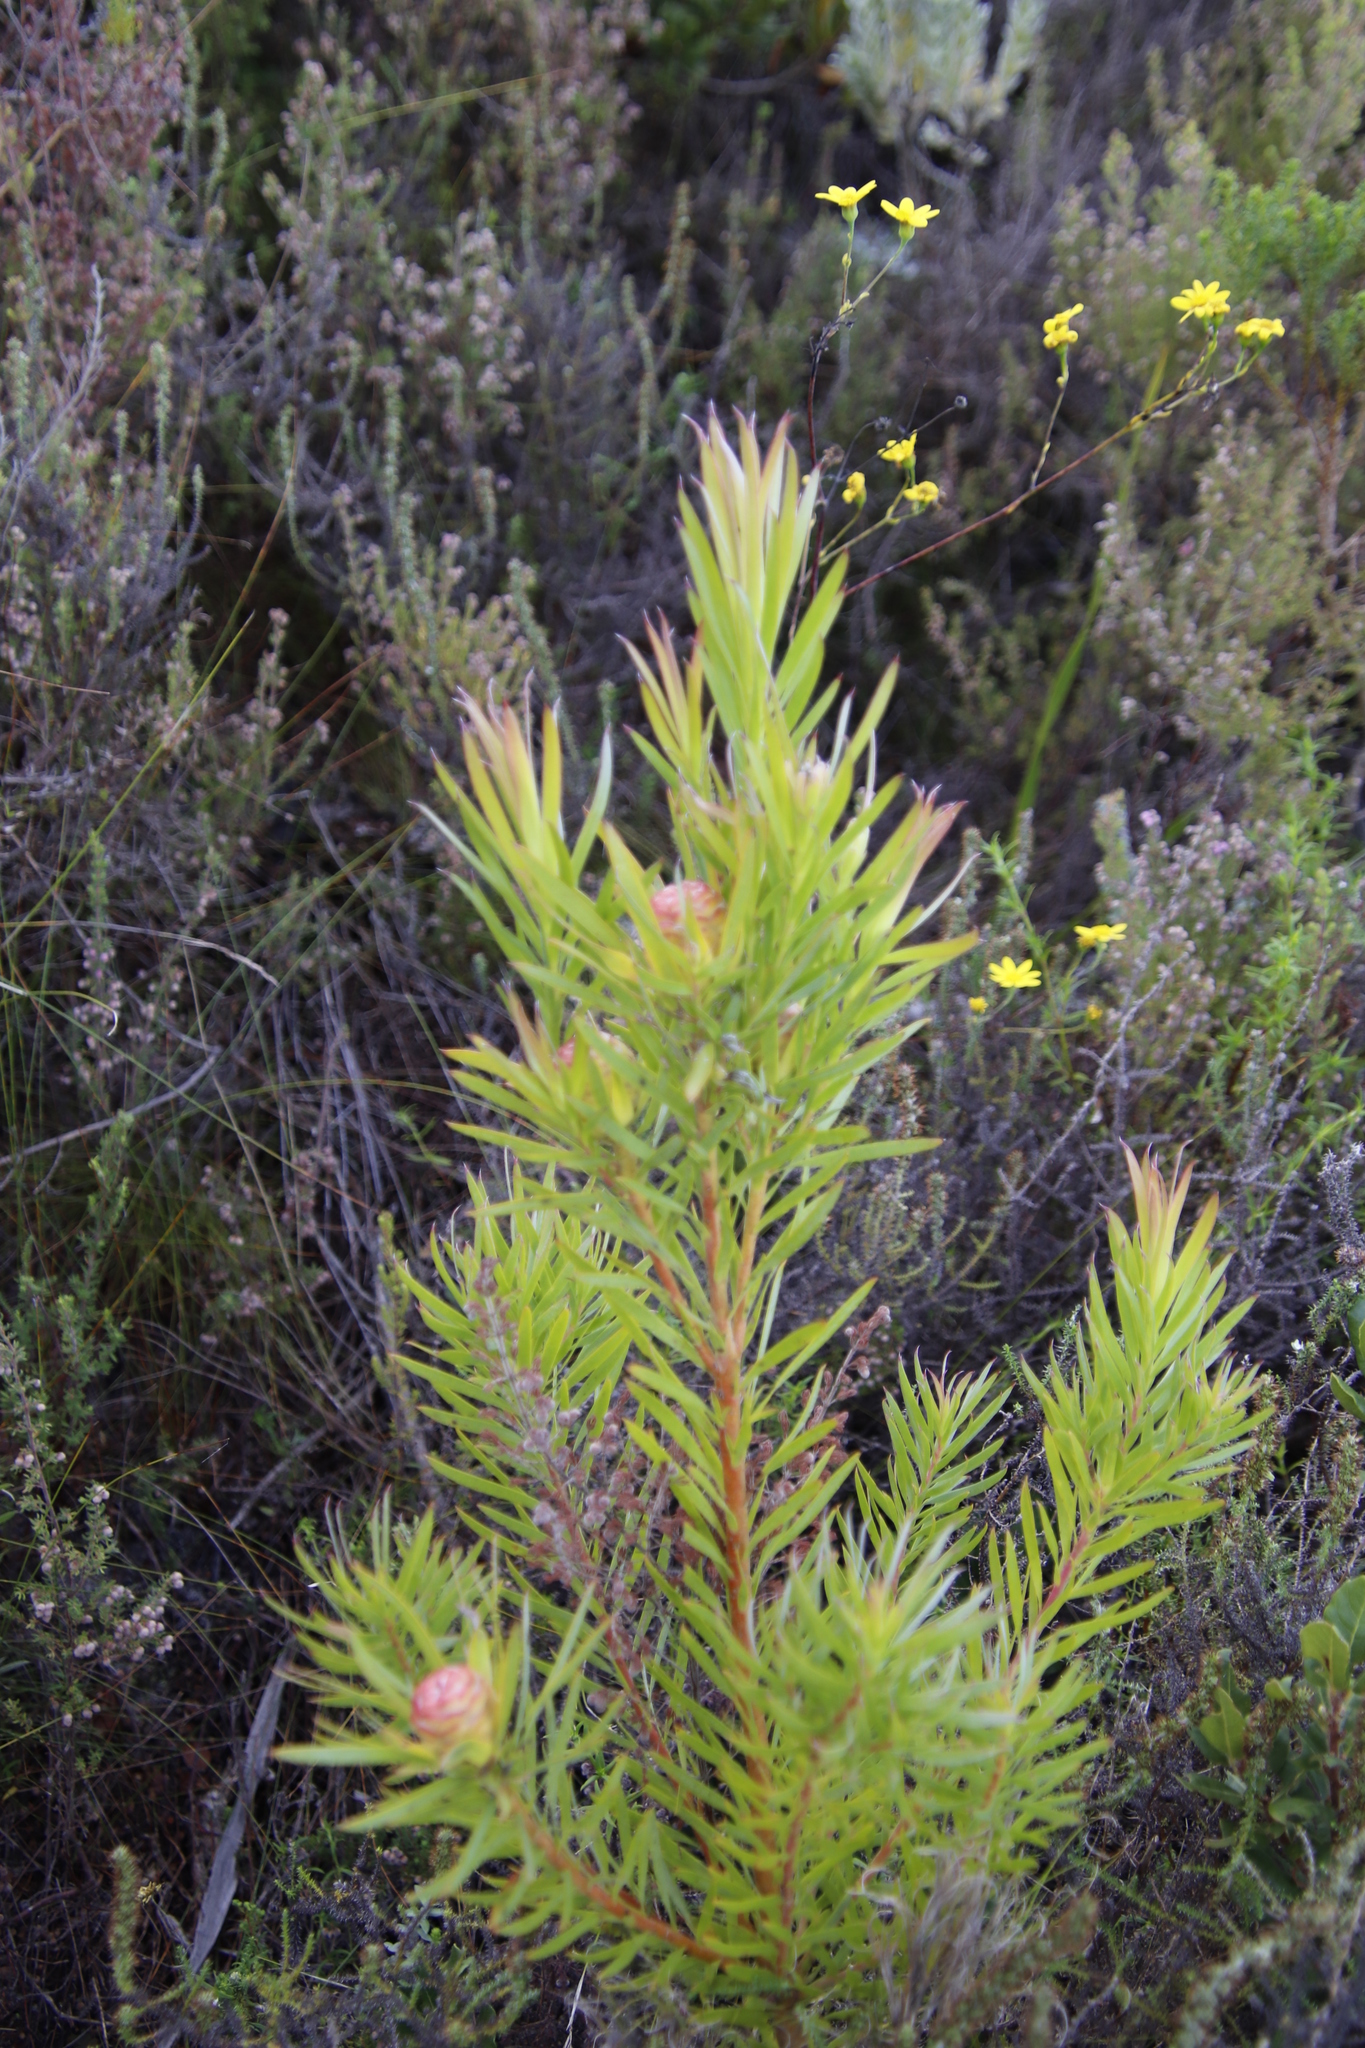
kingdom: Plantae
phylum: Tracheophyta
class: Magnoliopsida
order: Proteales
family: Proteaceae
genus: Leucadendron
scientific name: Leucadendron xanthoconus
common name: Sickle-leaf conebush
